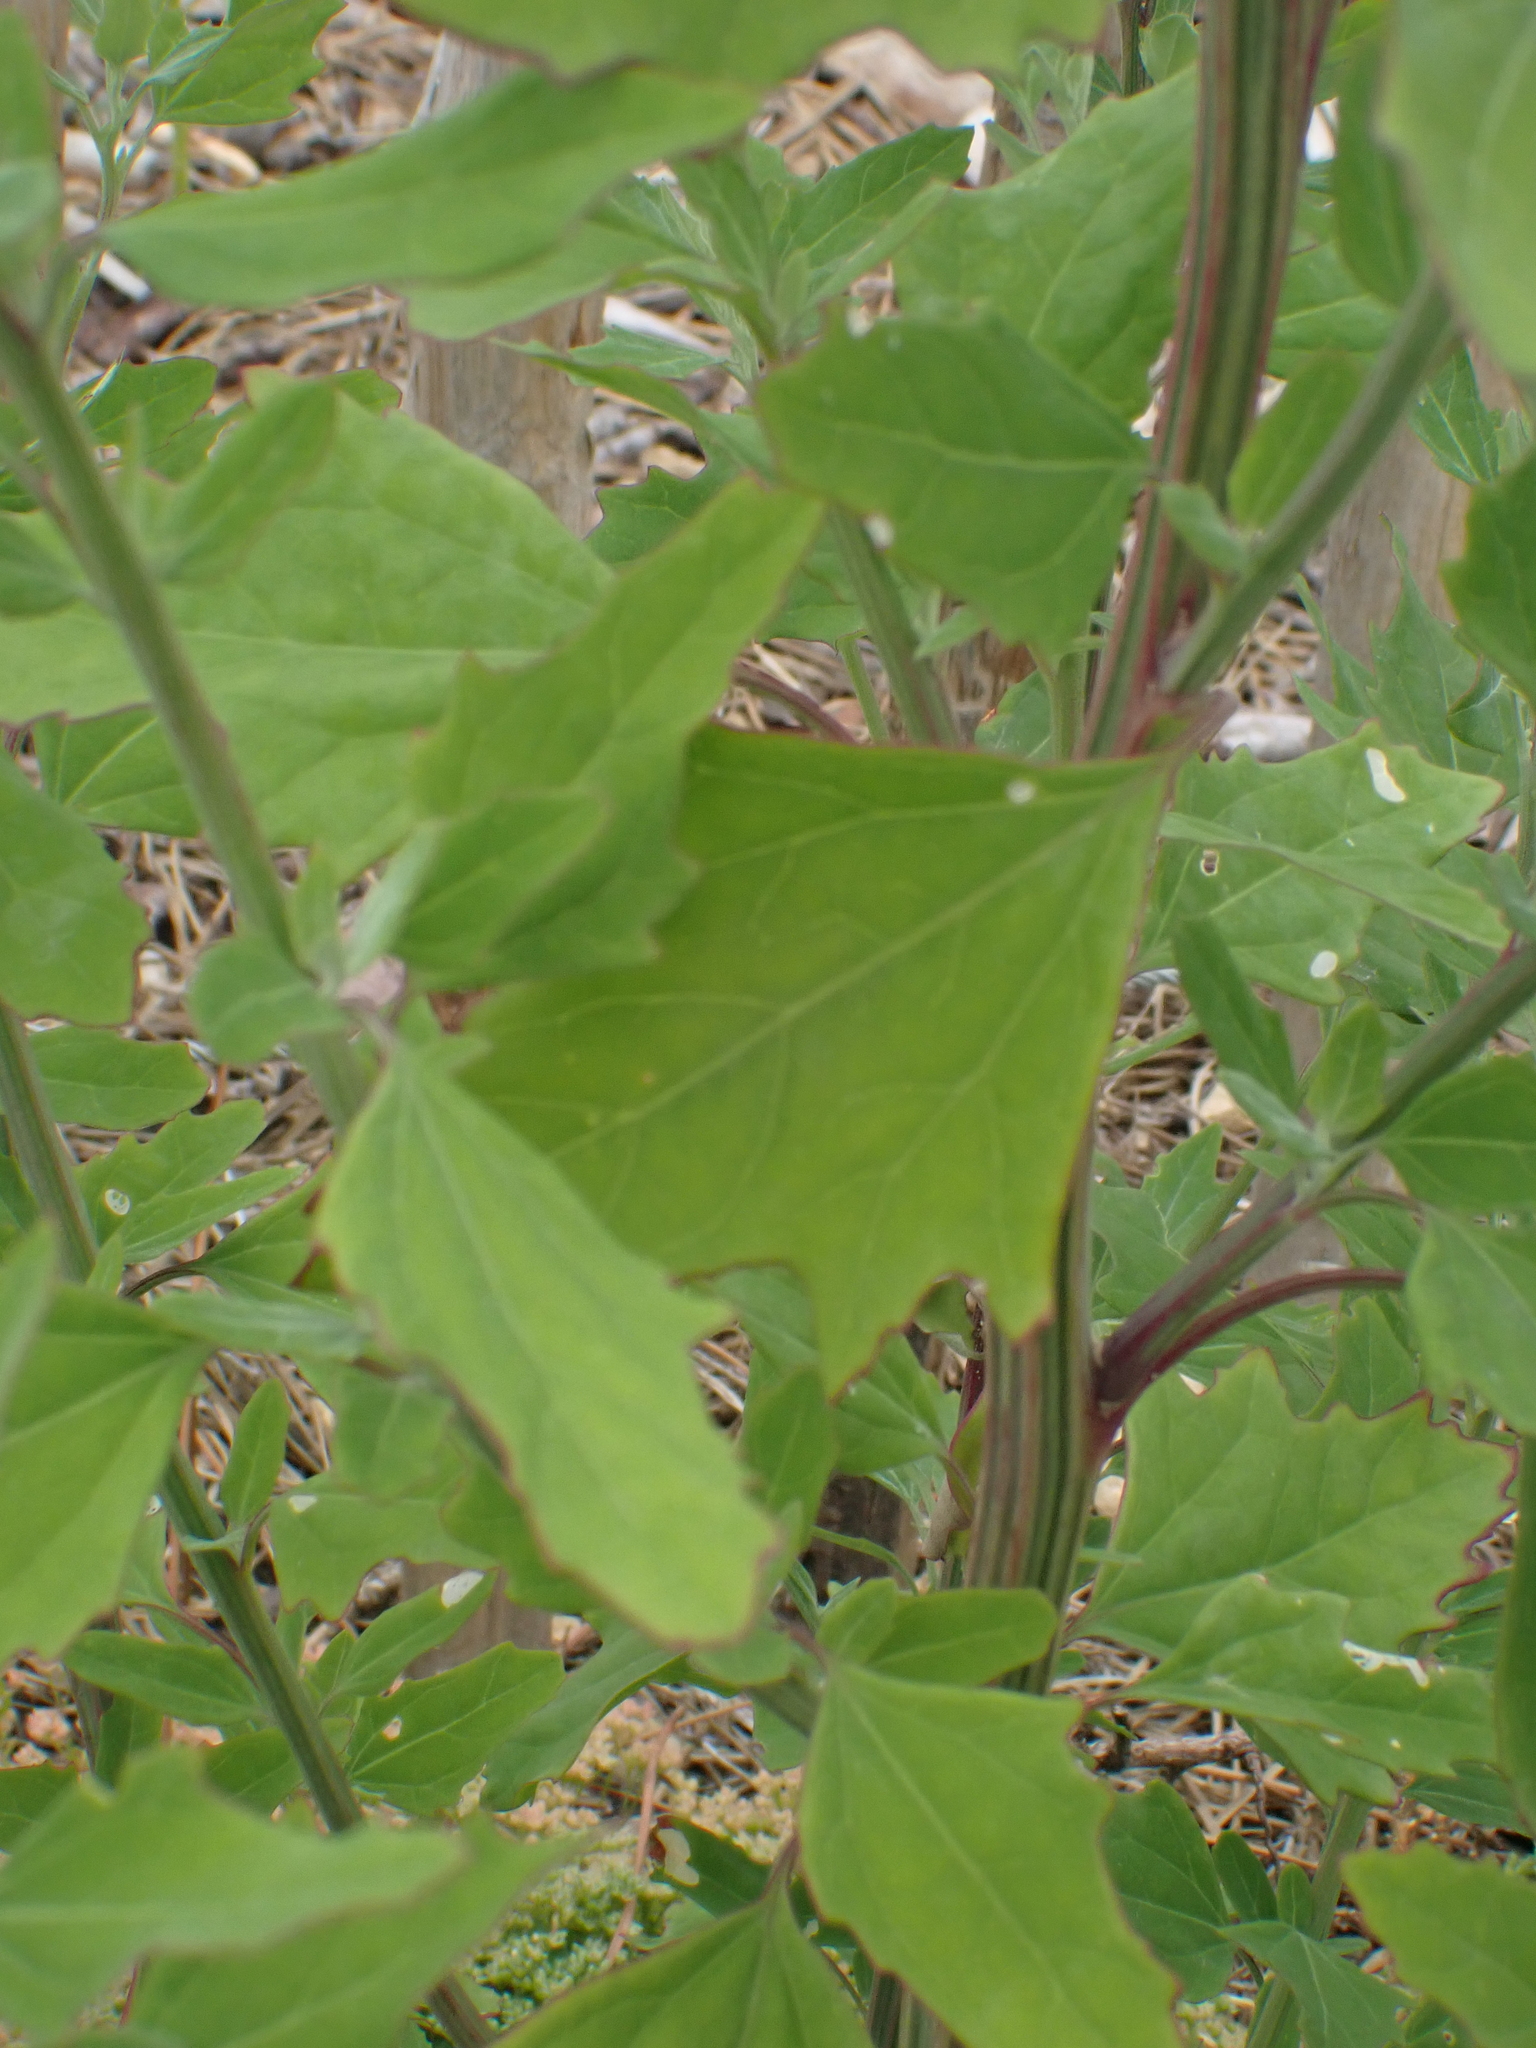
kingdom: Plantae
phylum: Tracheophyta
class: Magnoliopsida
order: Caryophyllales
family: Amaranthaceae
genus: Chenopodium
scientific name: Chenopodium album
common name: Fat-hen
